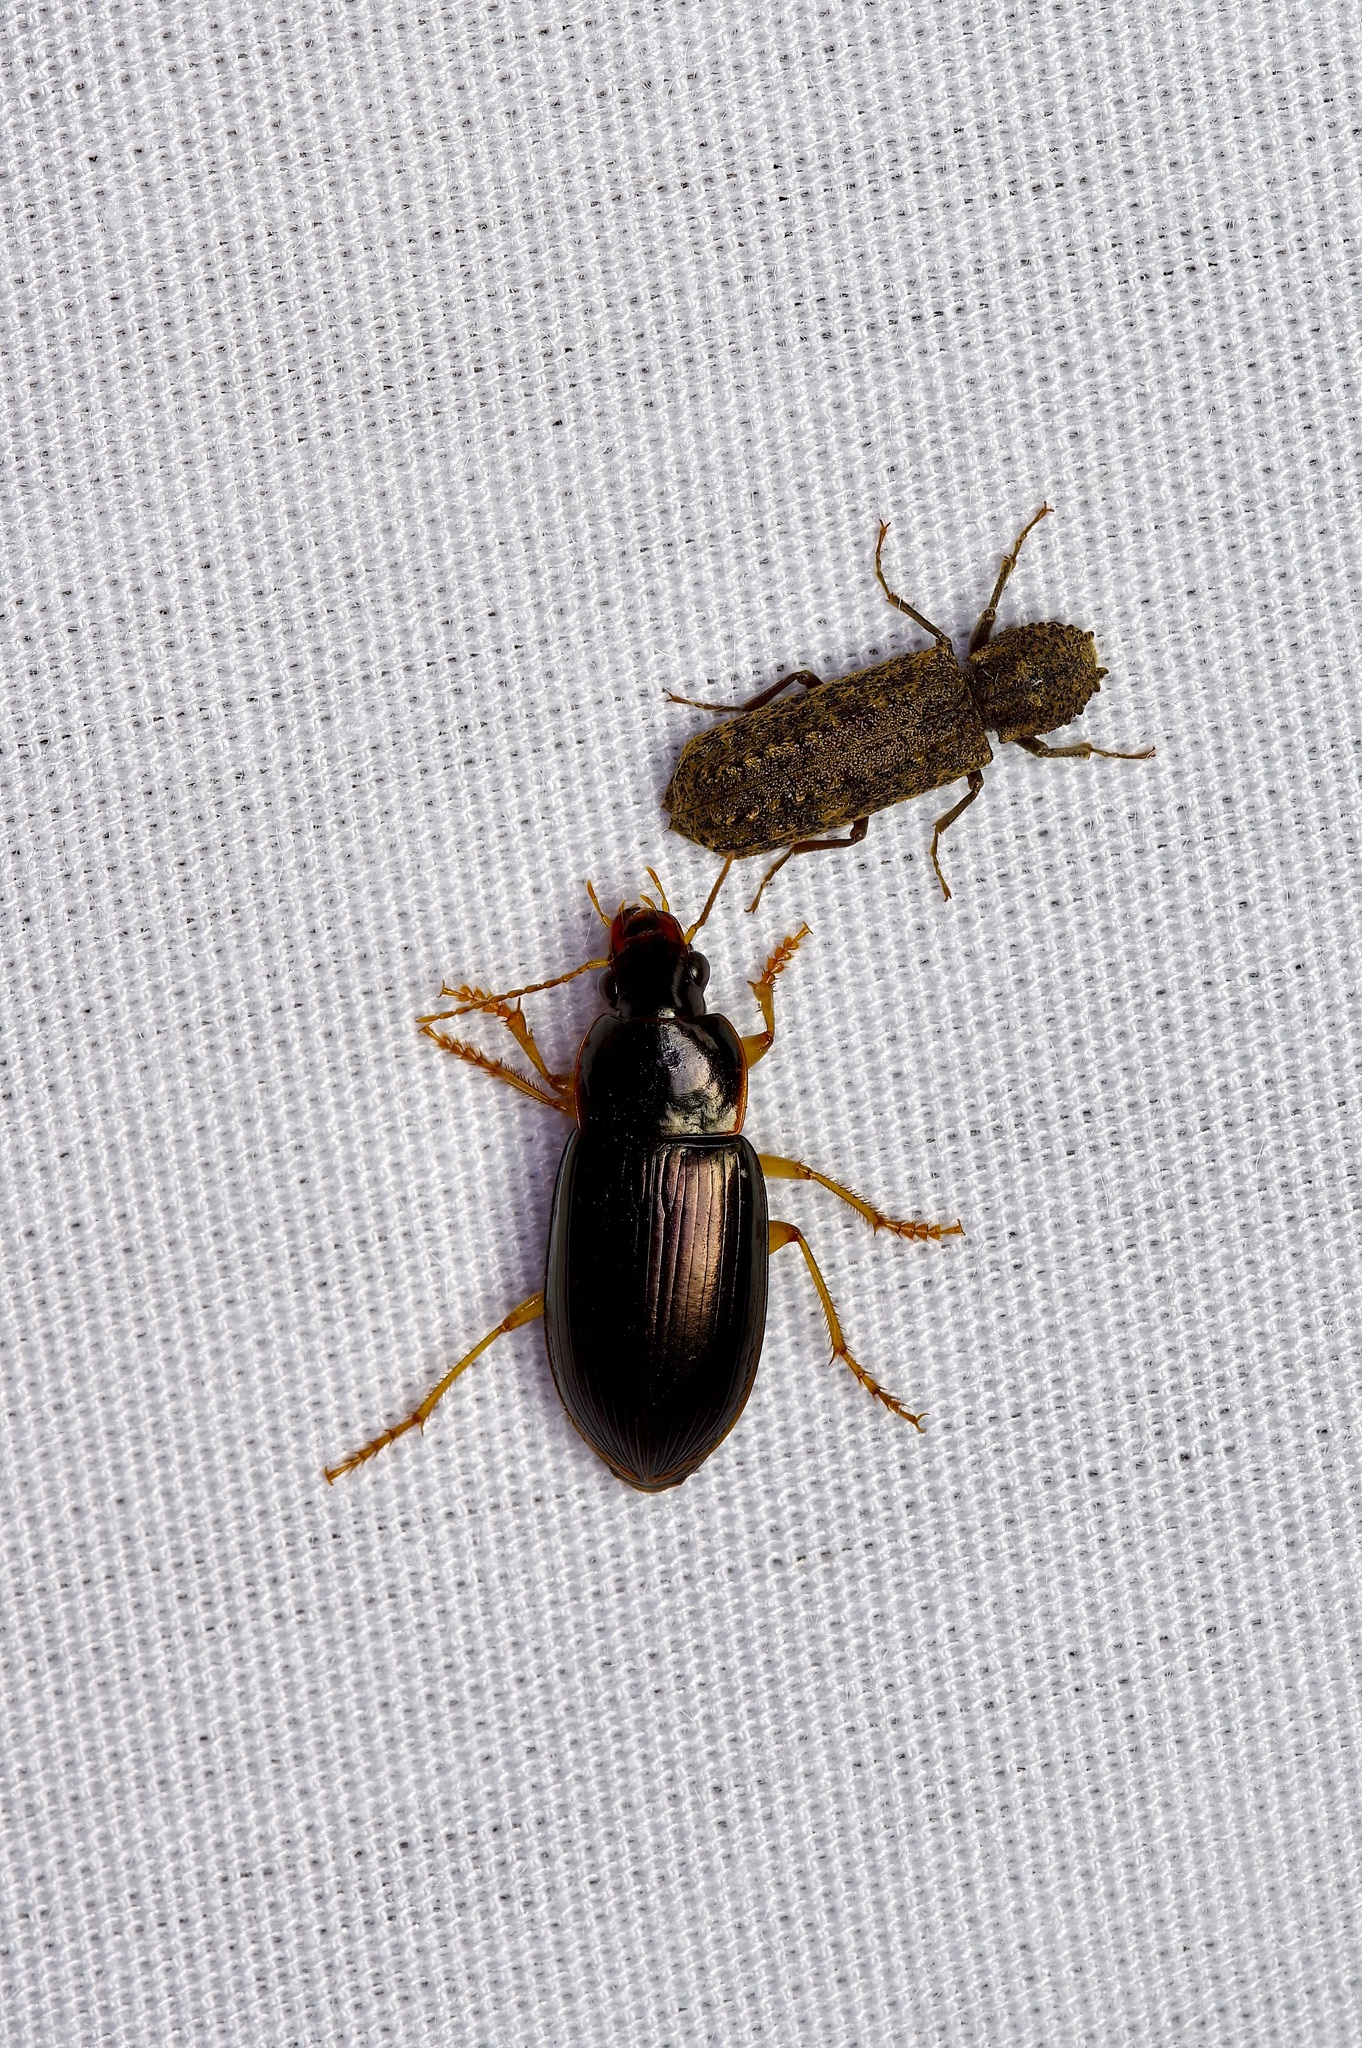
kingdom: Animalia
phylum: Arthropoda
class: Insecta
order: Coleoptera
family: Carabidae
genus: Notiobia
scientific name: Notiobia terminata
